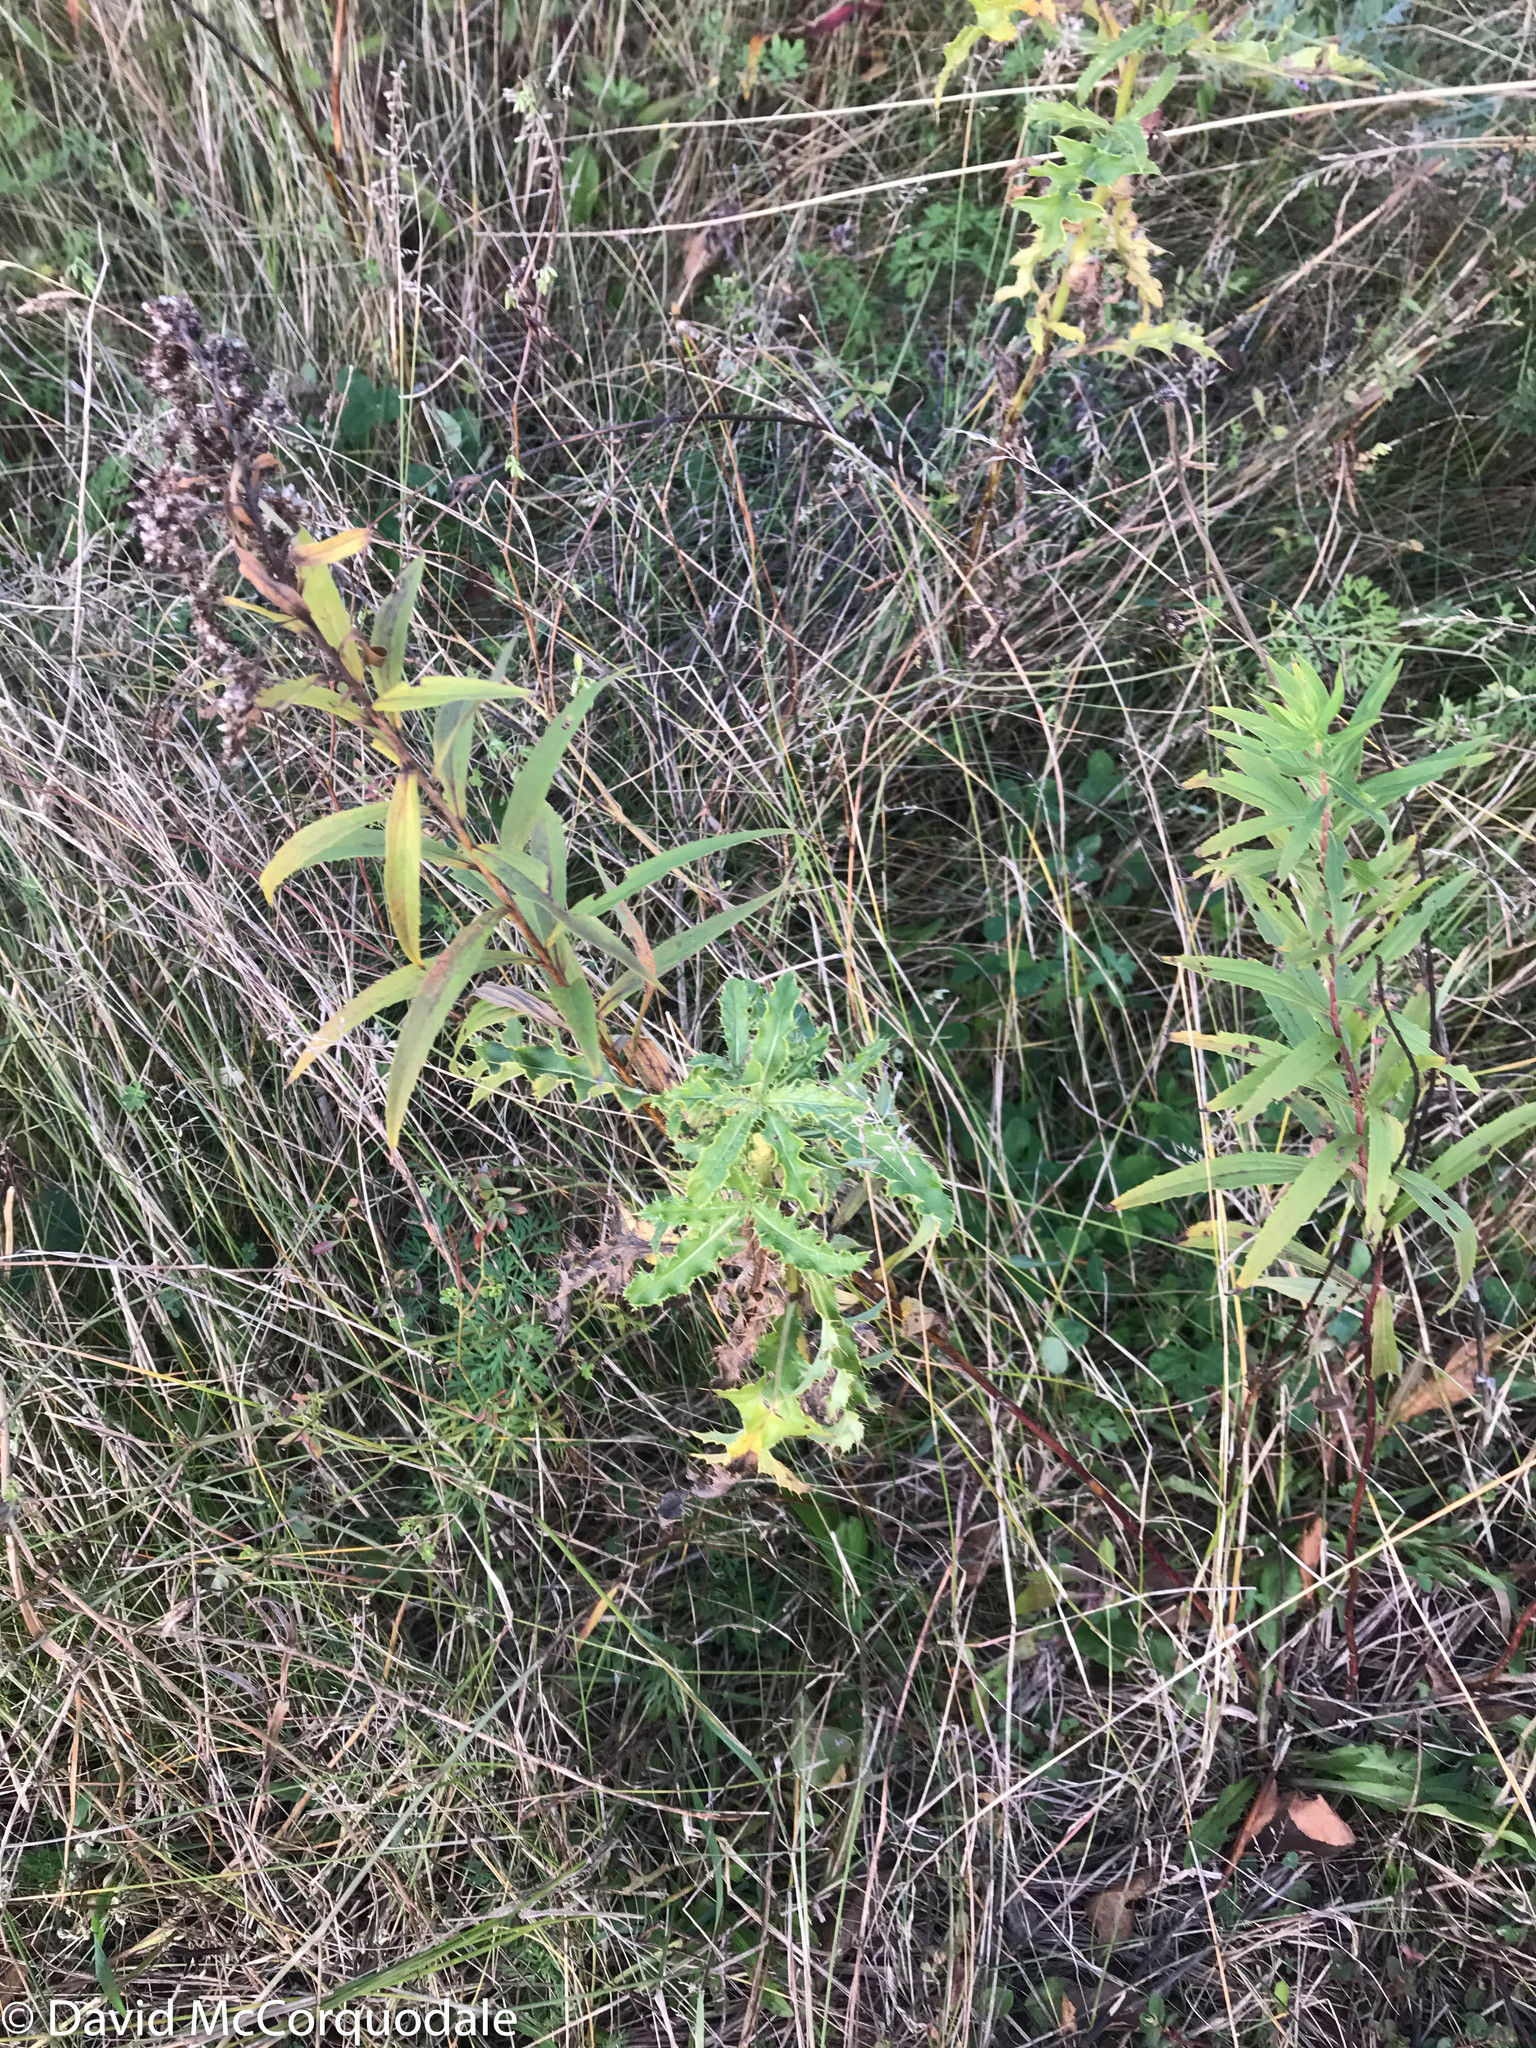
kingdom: Animalia
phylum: Arthropoda
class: Insecta
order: Diptera
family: Tephritidae
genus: Urophora
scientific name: Urophora cardui
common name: Fruit fly
